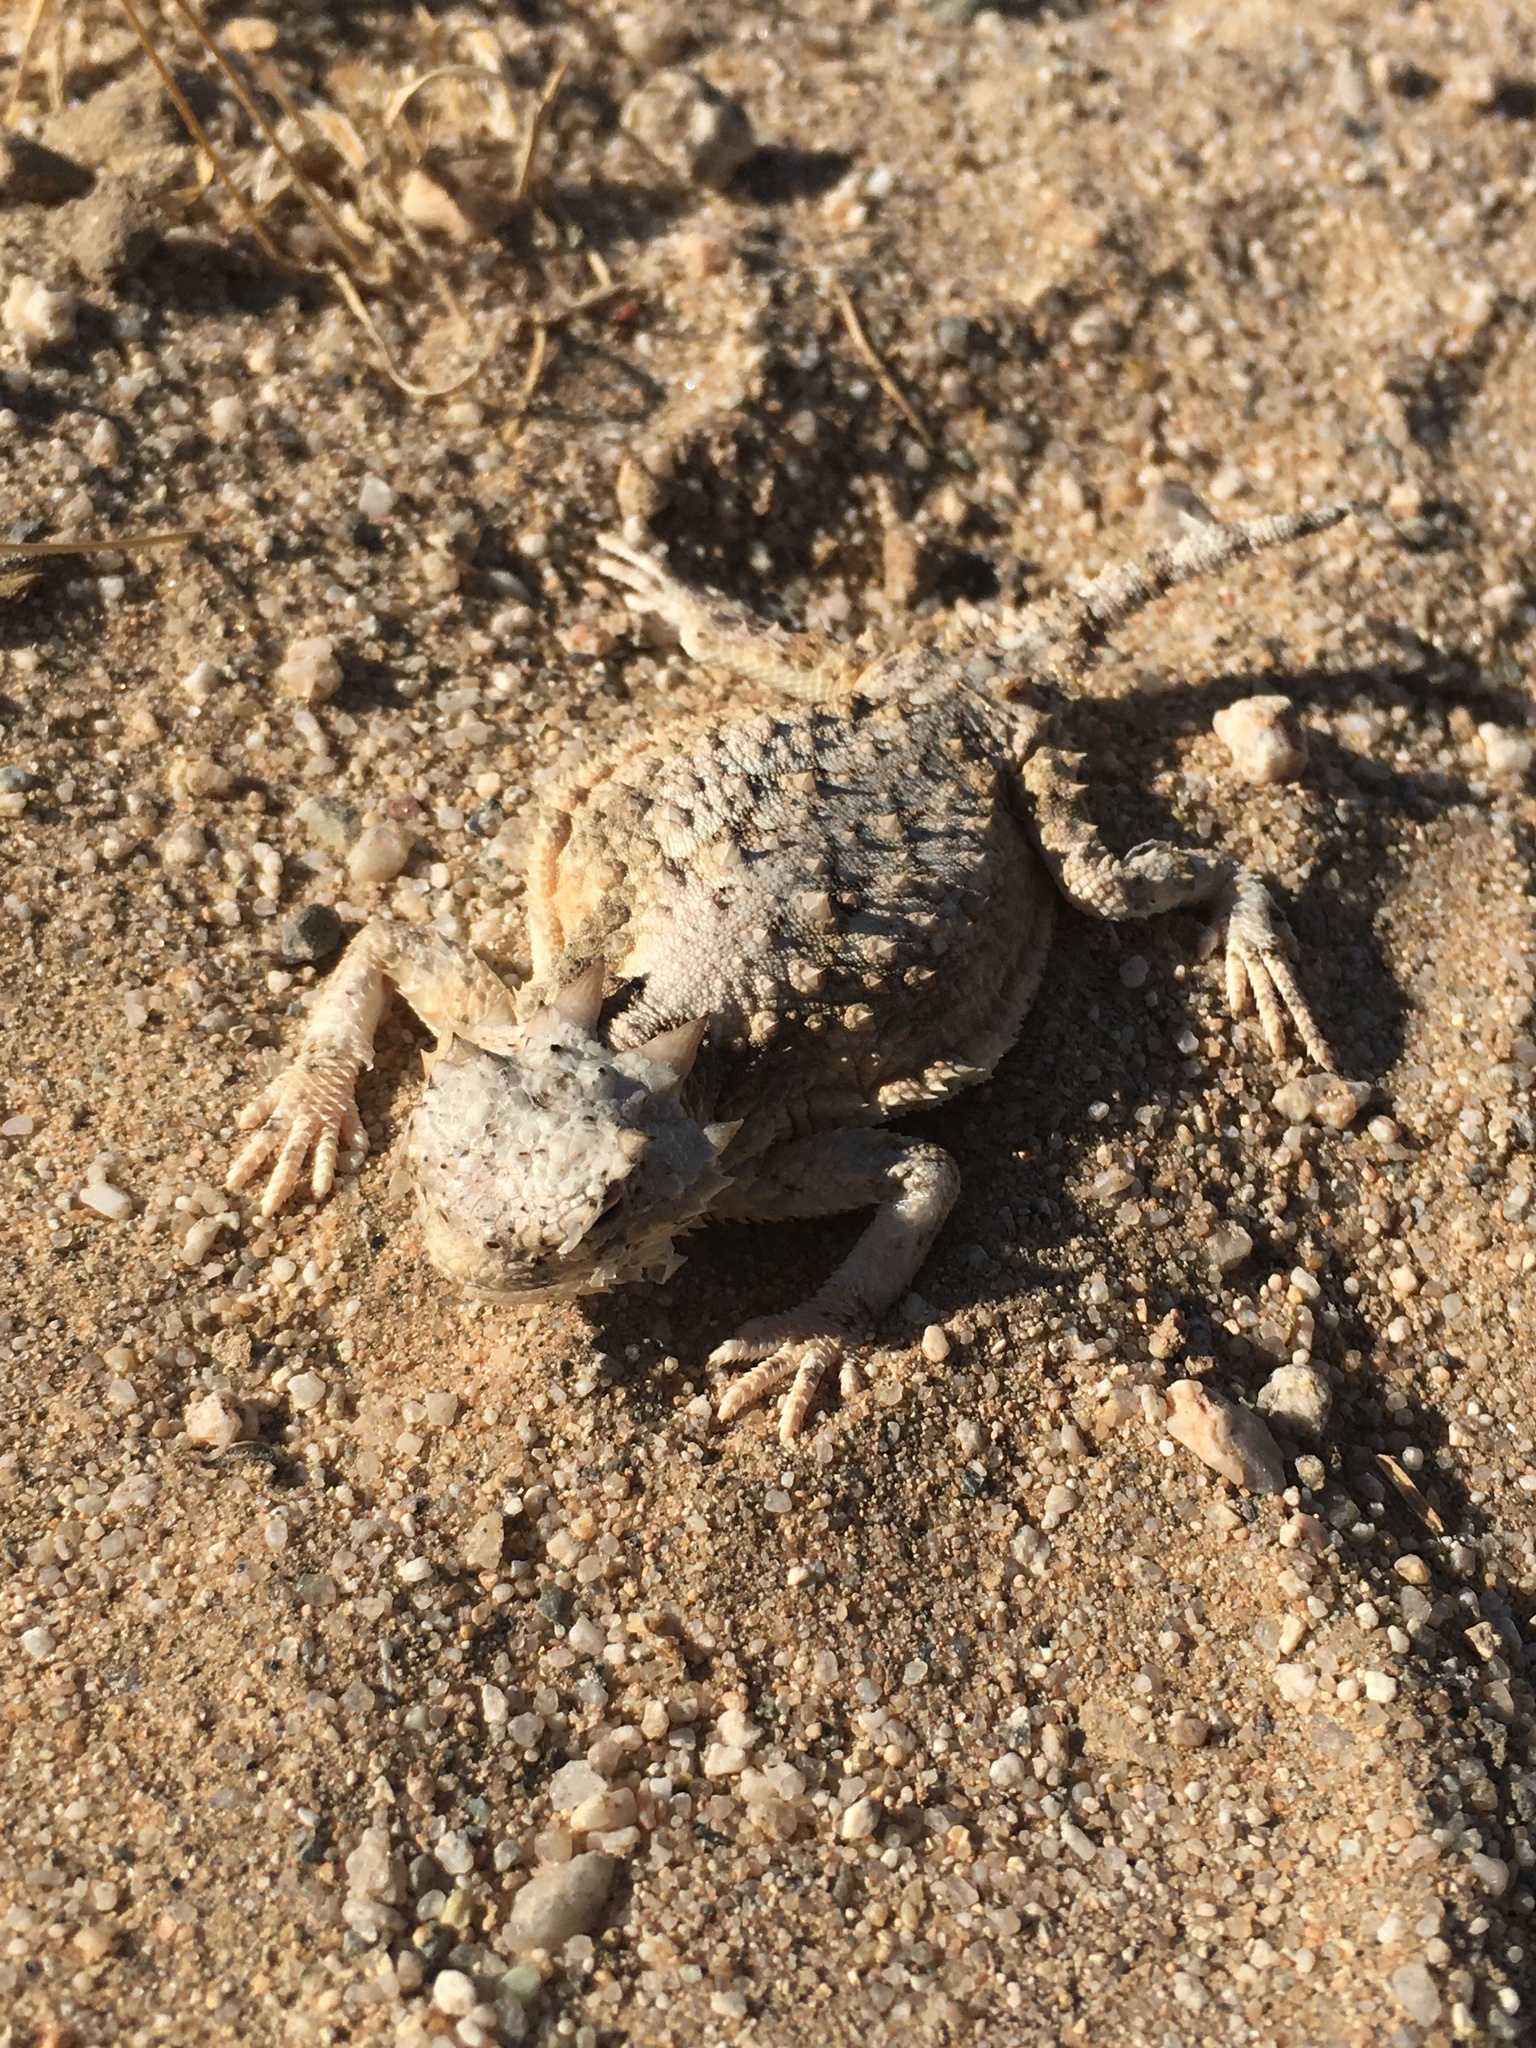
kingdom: Animalia
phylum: Chordata
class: Squamata
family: Phrynosomatidae
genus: Phrynosoma
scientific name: Phrynosoma platyrhinos
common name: Desert horned lizard
